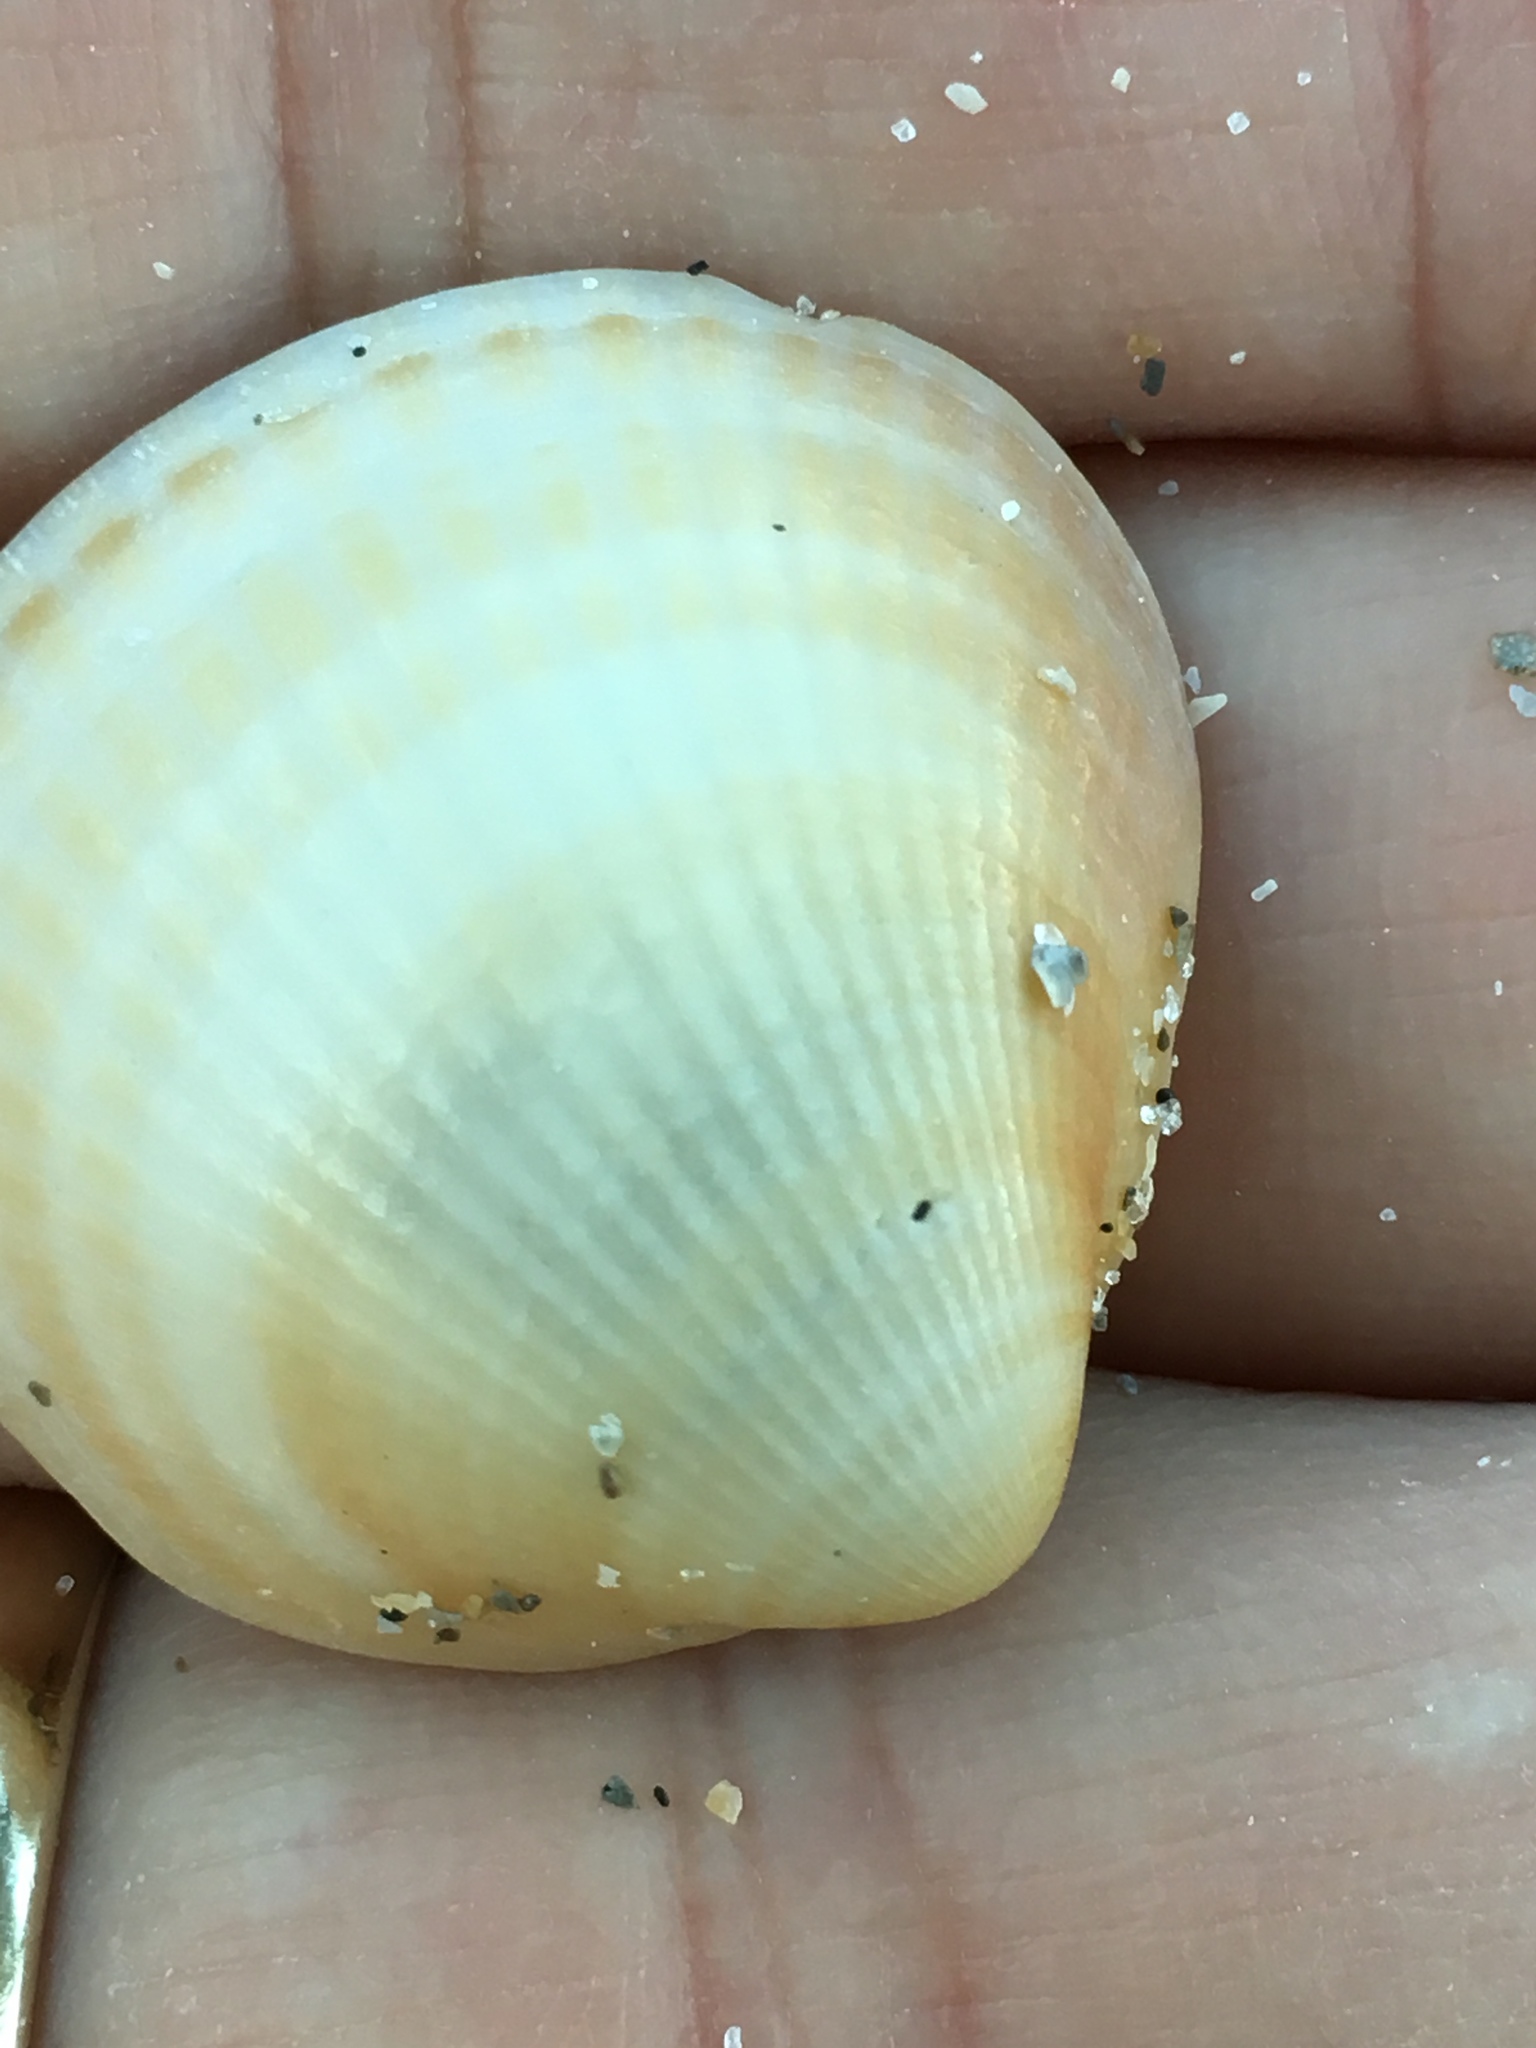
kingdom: Animalia
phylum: Mollusca
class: Bivalvia
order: Arcida
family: Glycymerididae
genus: Glycymeris
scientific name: Glycymeris spectralis
